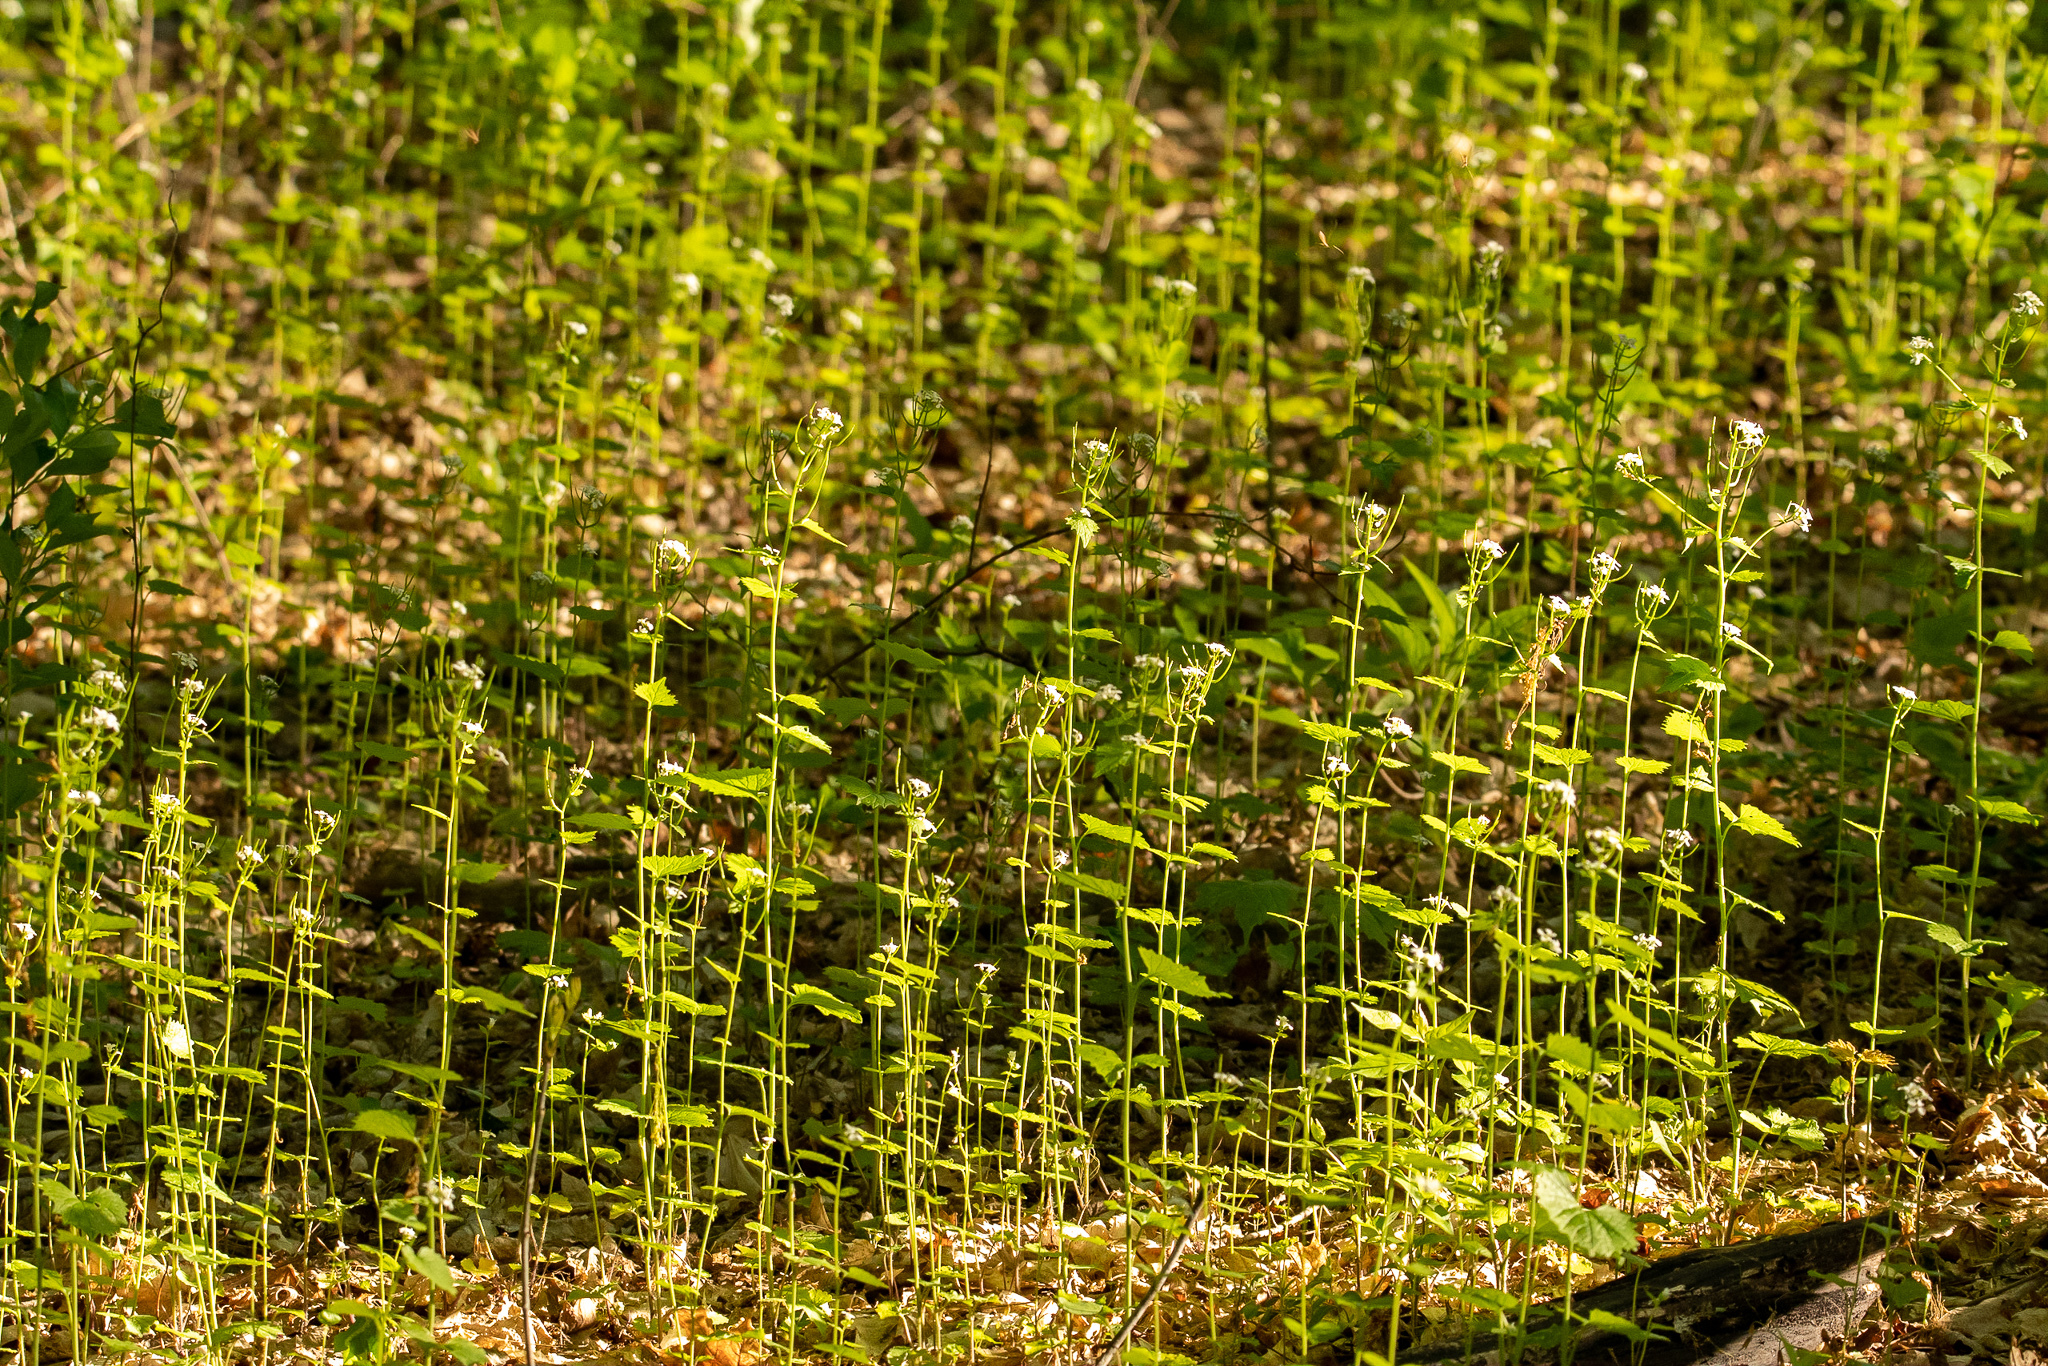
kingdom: Plantae
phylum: Tracheophyta
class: Magnoliopsida
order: Brassicales
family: Brassicaceae
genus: Alliaria
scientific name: Alliaria petiolata
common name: Garlic mustard
